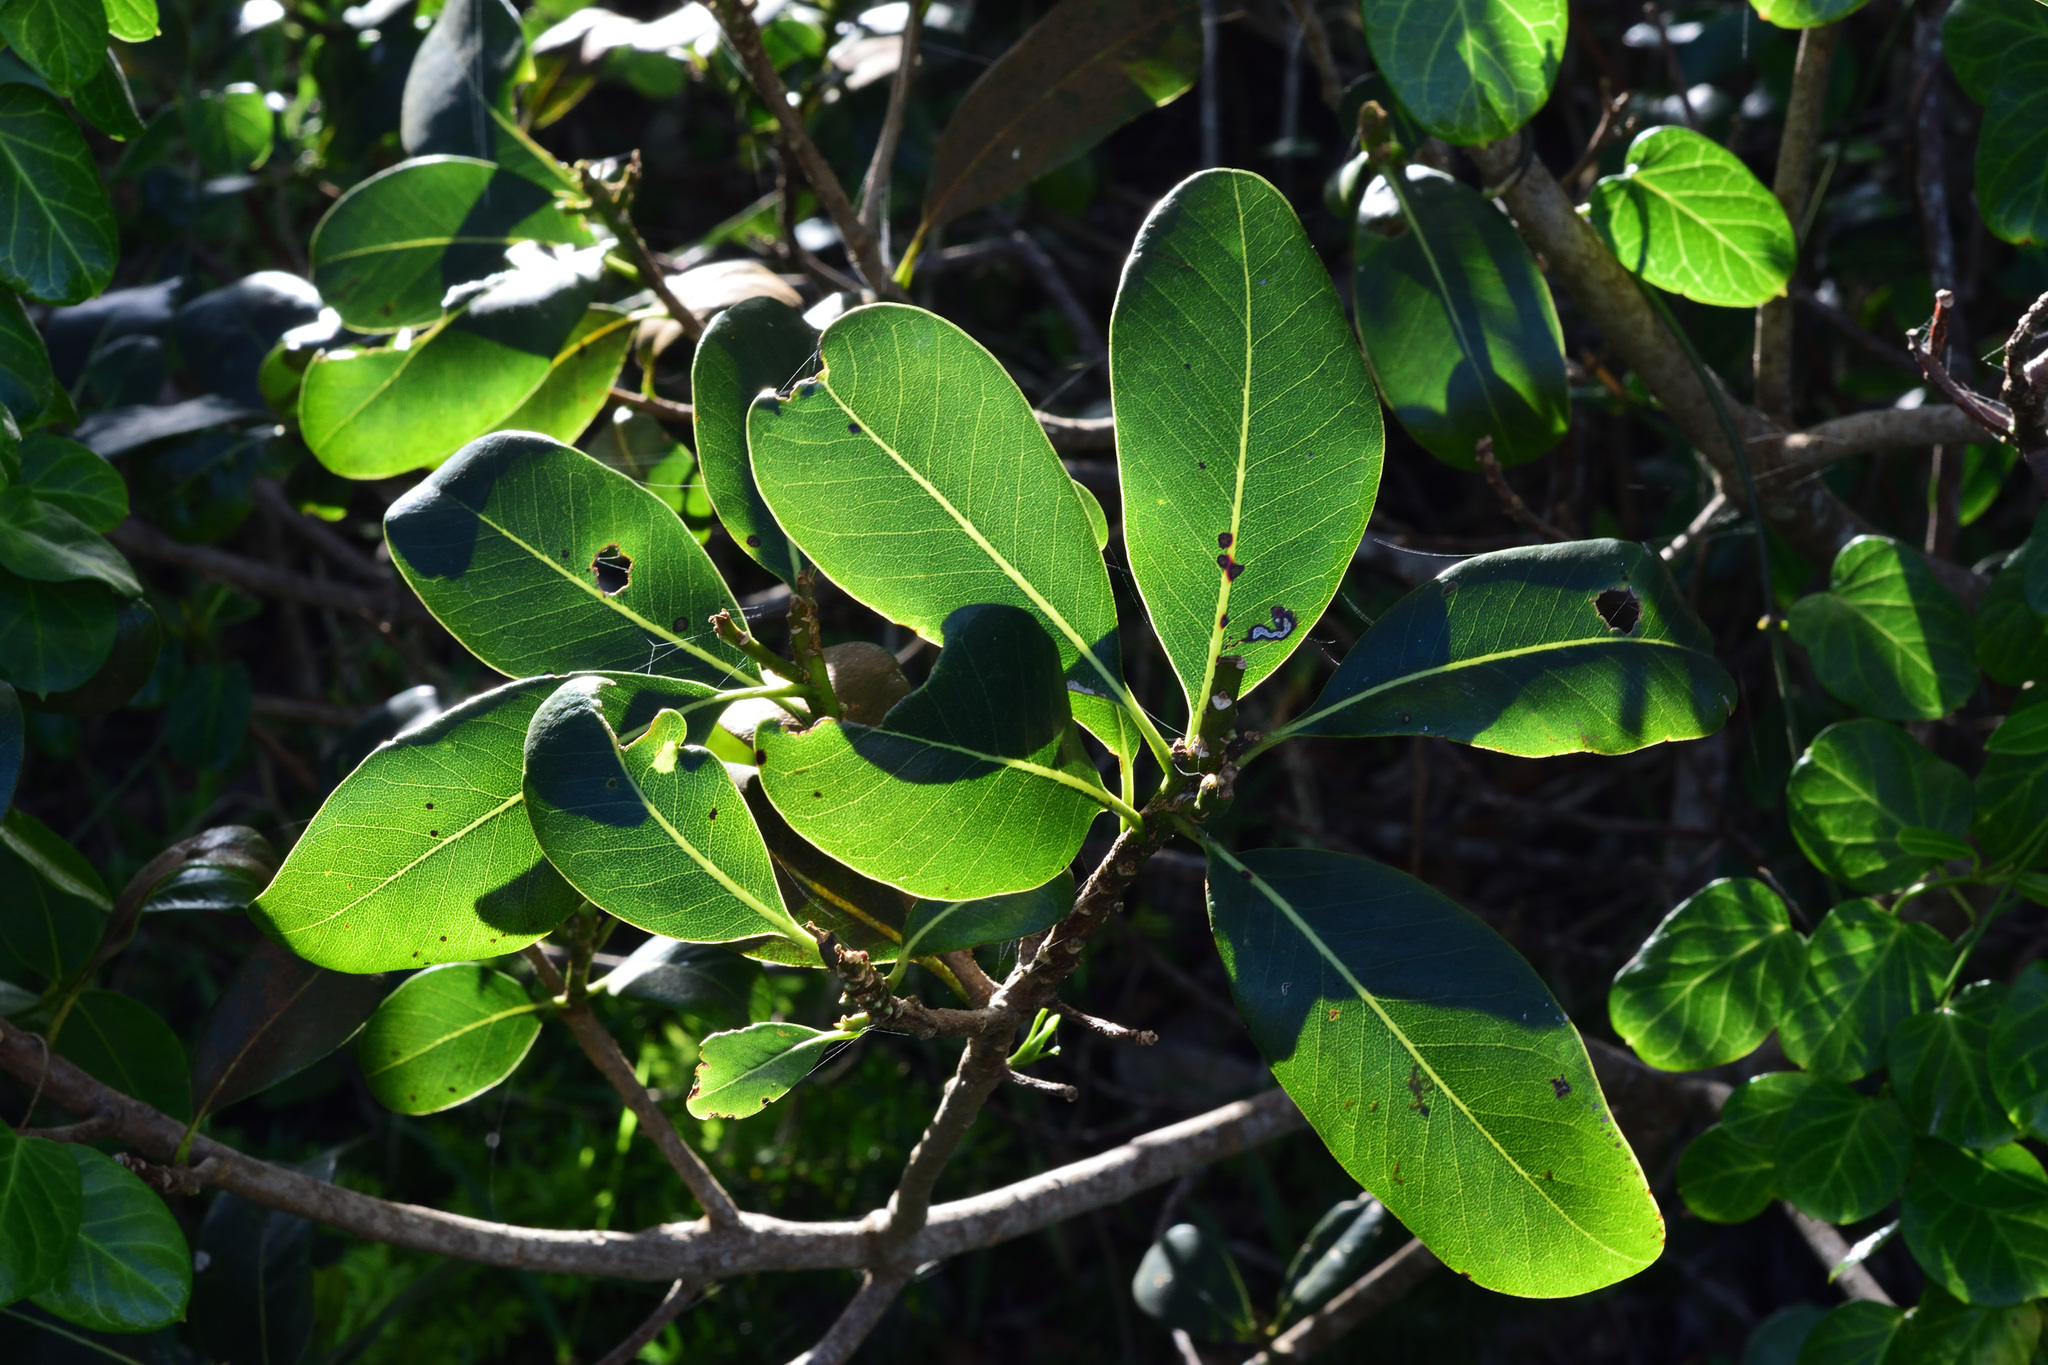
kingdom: Plantae
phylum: Tracheophyta
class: Magnoliopsida
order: Apiales
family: Pittosporaceae
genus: Pittosporum
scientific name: Pittosporum viridiflorum
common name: Cape cheesewood
